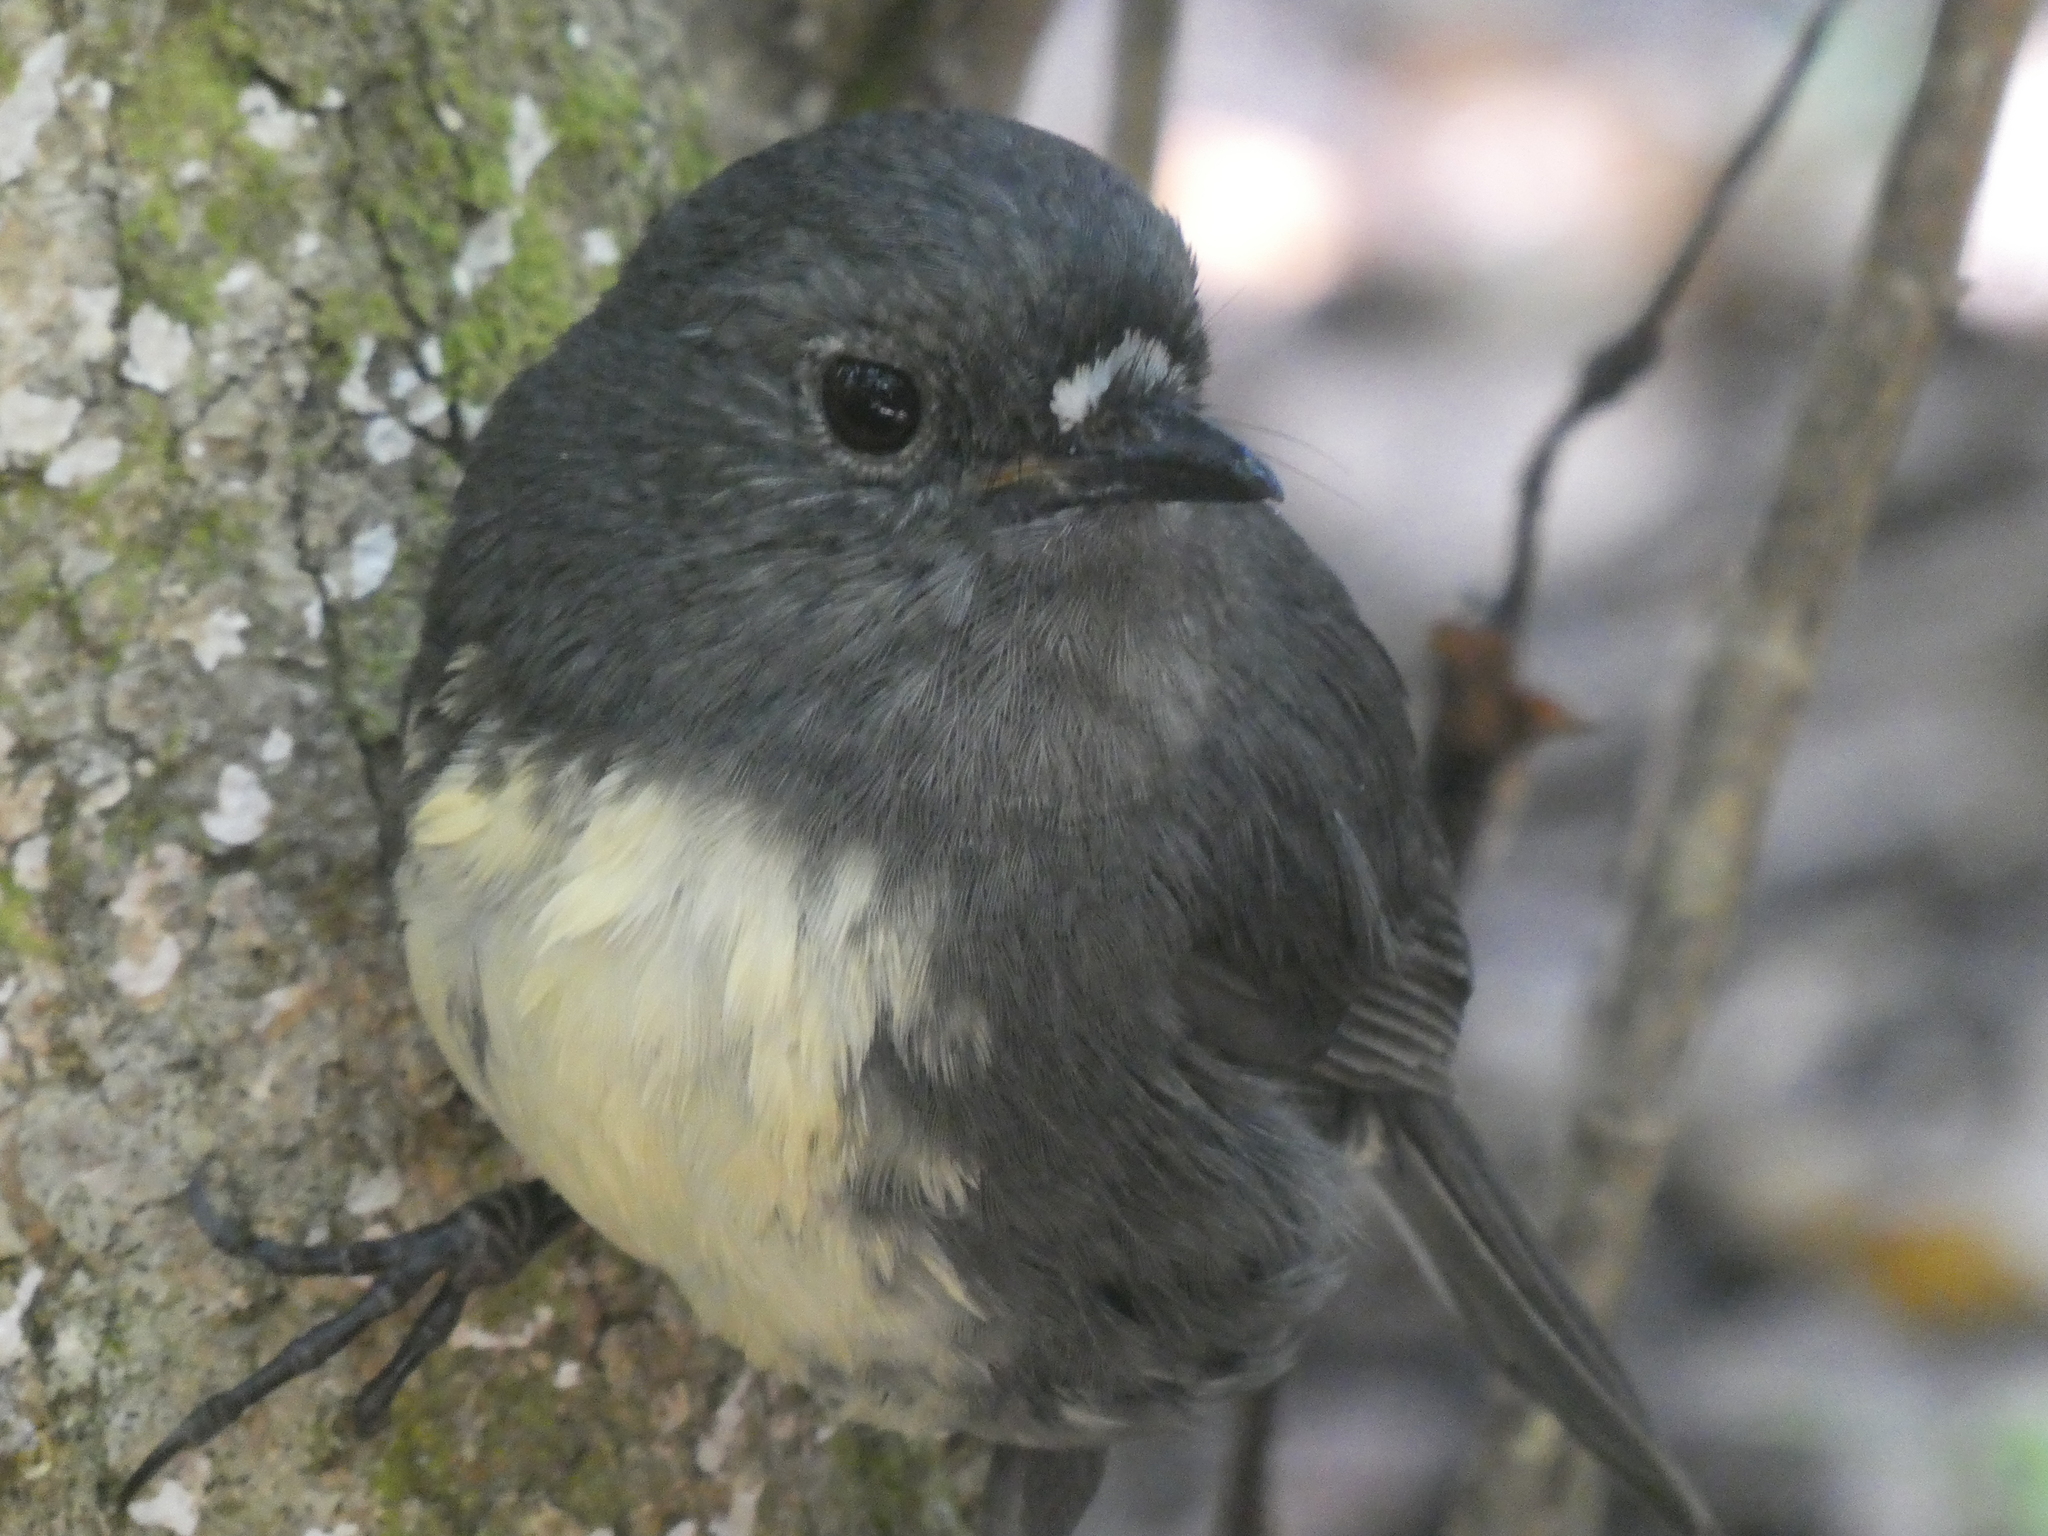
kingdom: Animalia
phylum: Chordata
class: Aves
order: Passeriformes
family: Petroicidae
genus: Petroica
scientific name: Petroica australis
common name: New zealand robin
